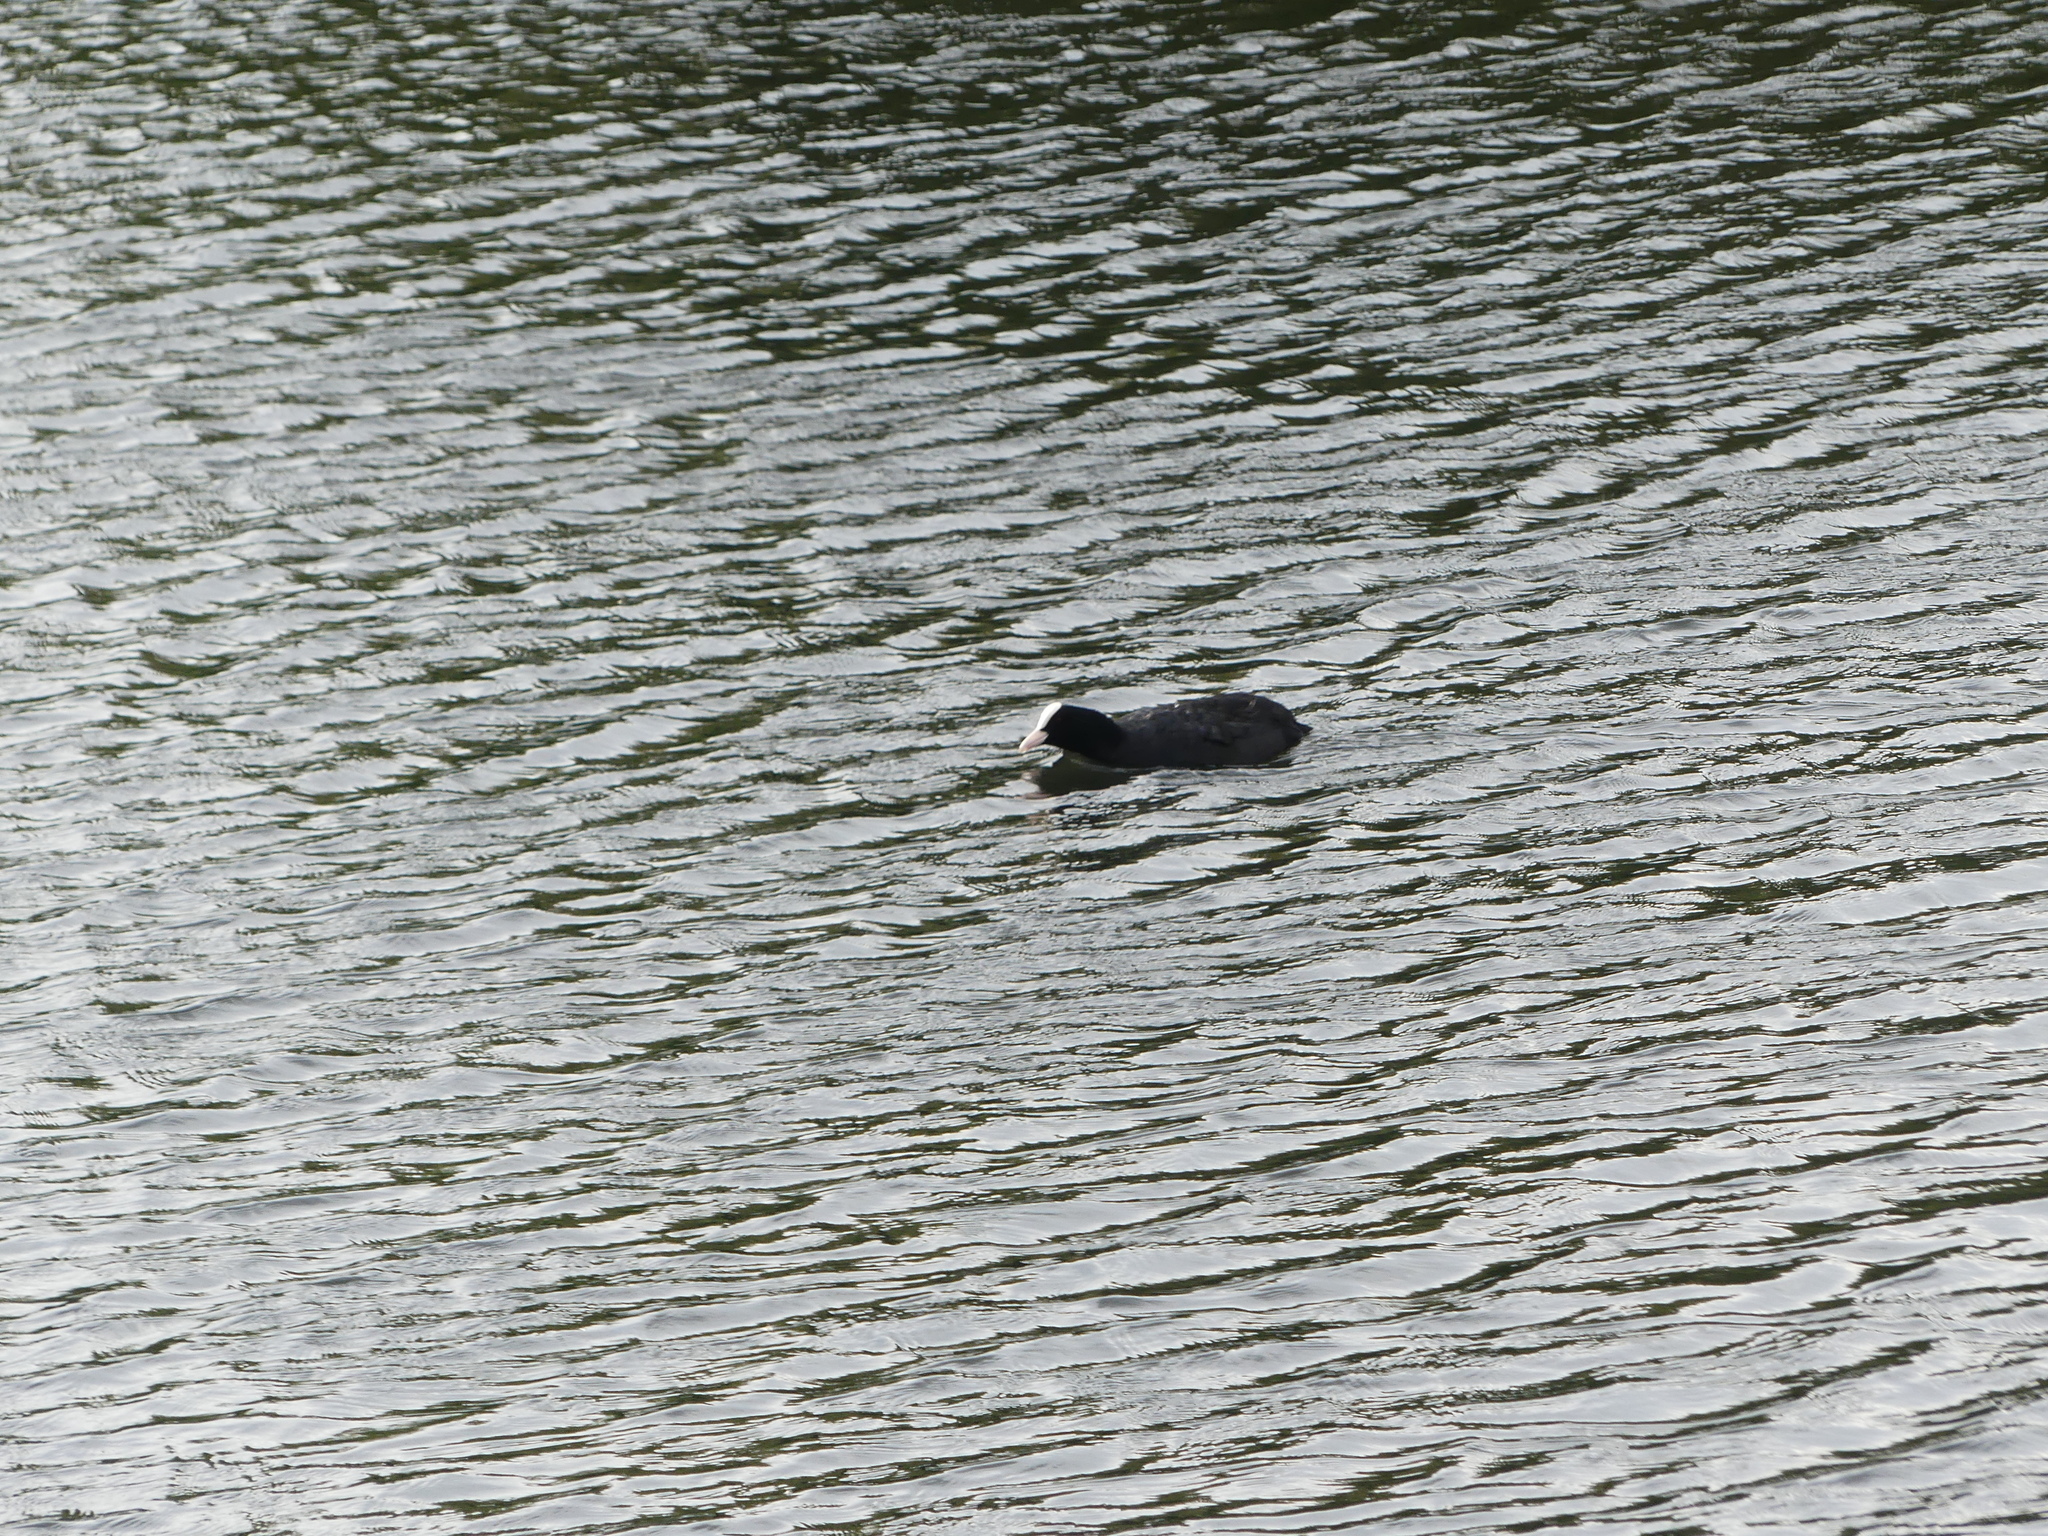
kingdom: Animalia
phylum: Chordata
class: Aves
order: Gruiformes
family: Rallidae
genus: Fulica
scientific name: Fulica atra
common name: Eurasian coot
